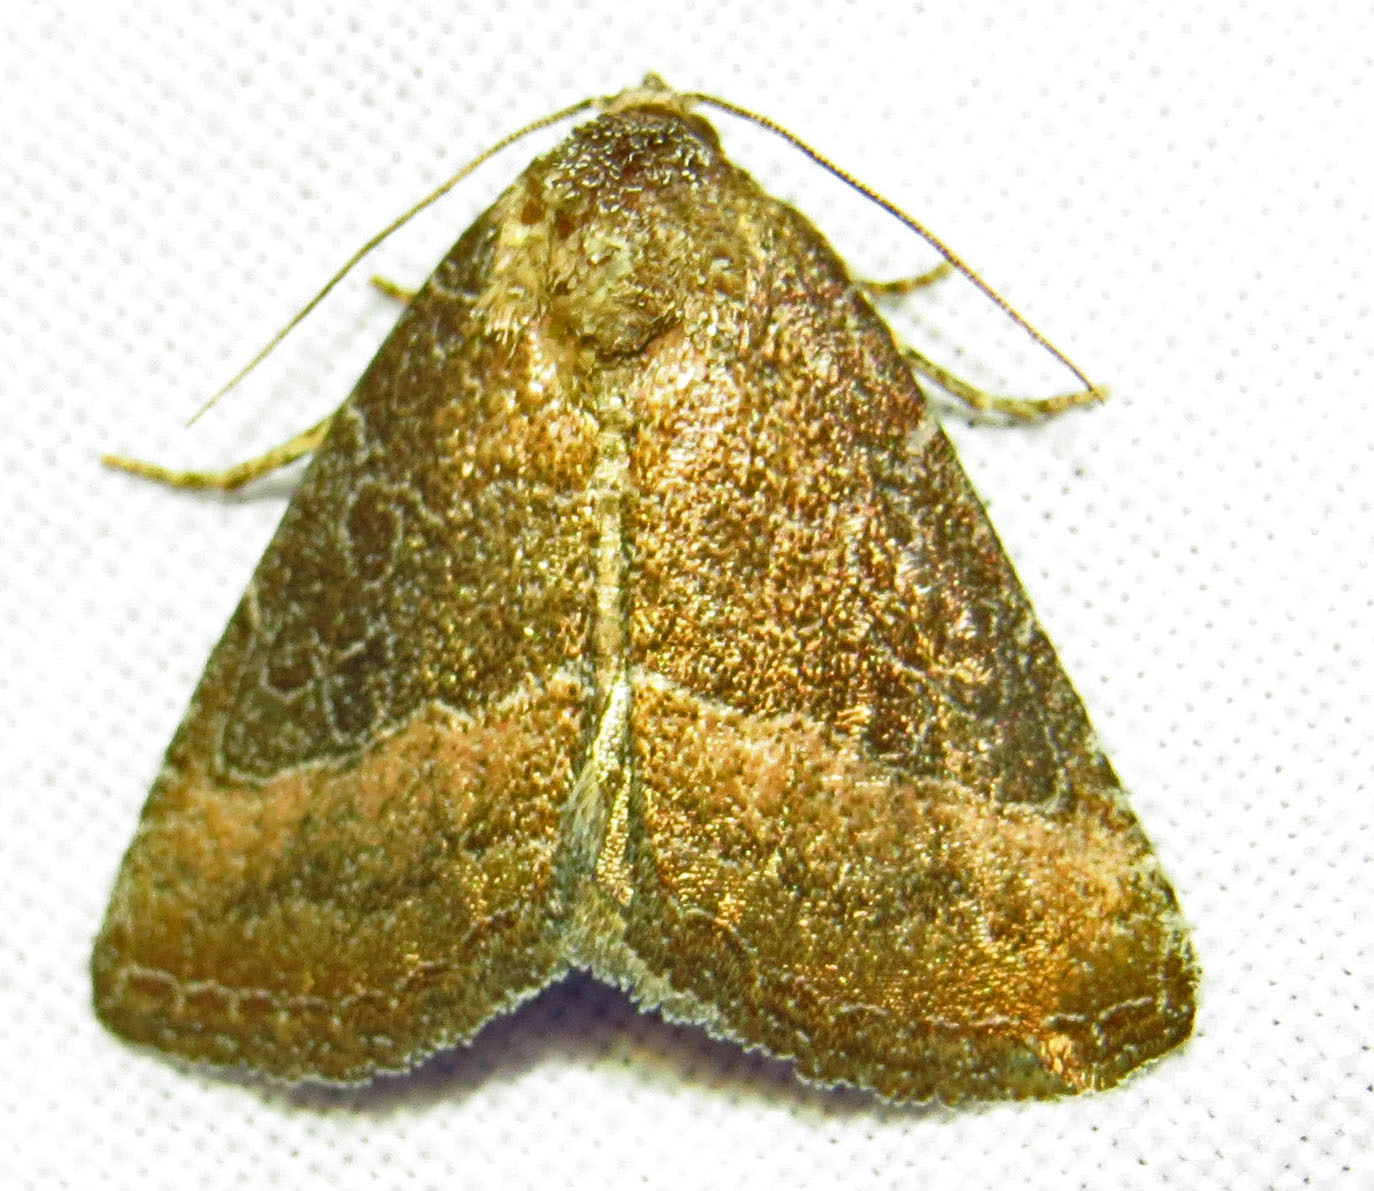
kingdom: Animalia
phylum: Arthropoda
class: Insecta
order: Lepidoptera
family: Noctuidae
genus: Ogdoconta
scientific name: Ogdoconta cinereola
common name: Common pinkband
